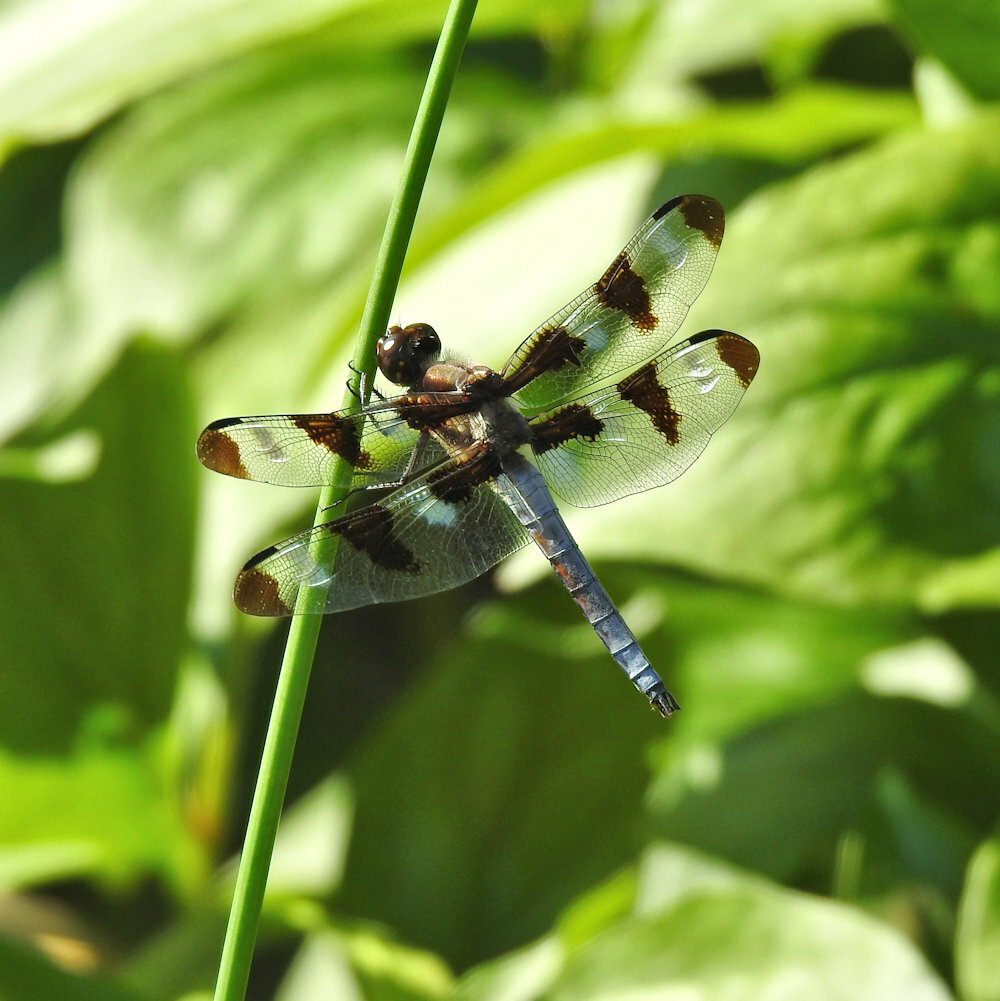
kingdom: Animalia
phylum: Arthropoda
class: Insecta
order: Odonata
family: Libellulidae
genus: Libellula
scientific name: Libellula pulchella
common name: Twelve-spotted skimmer
